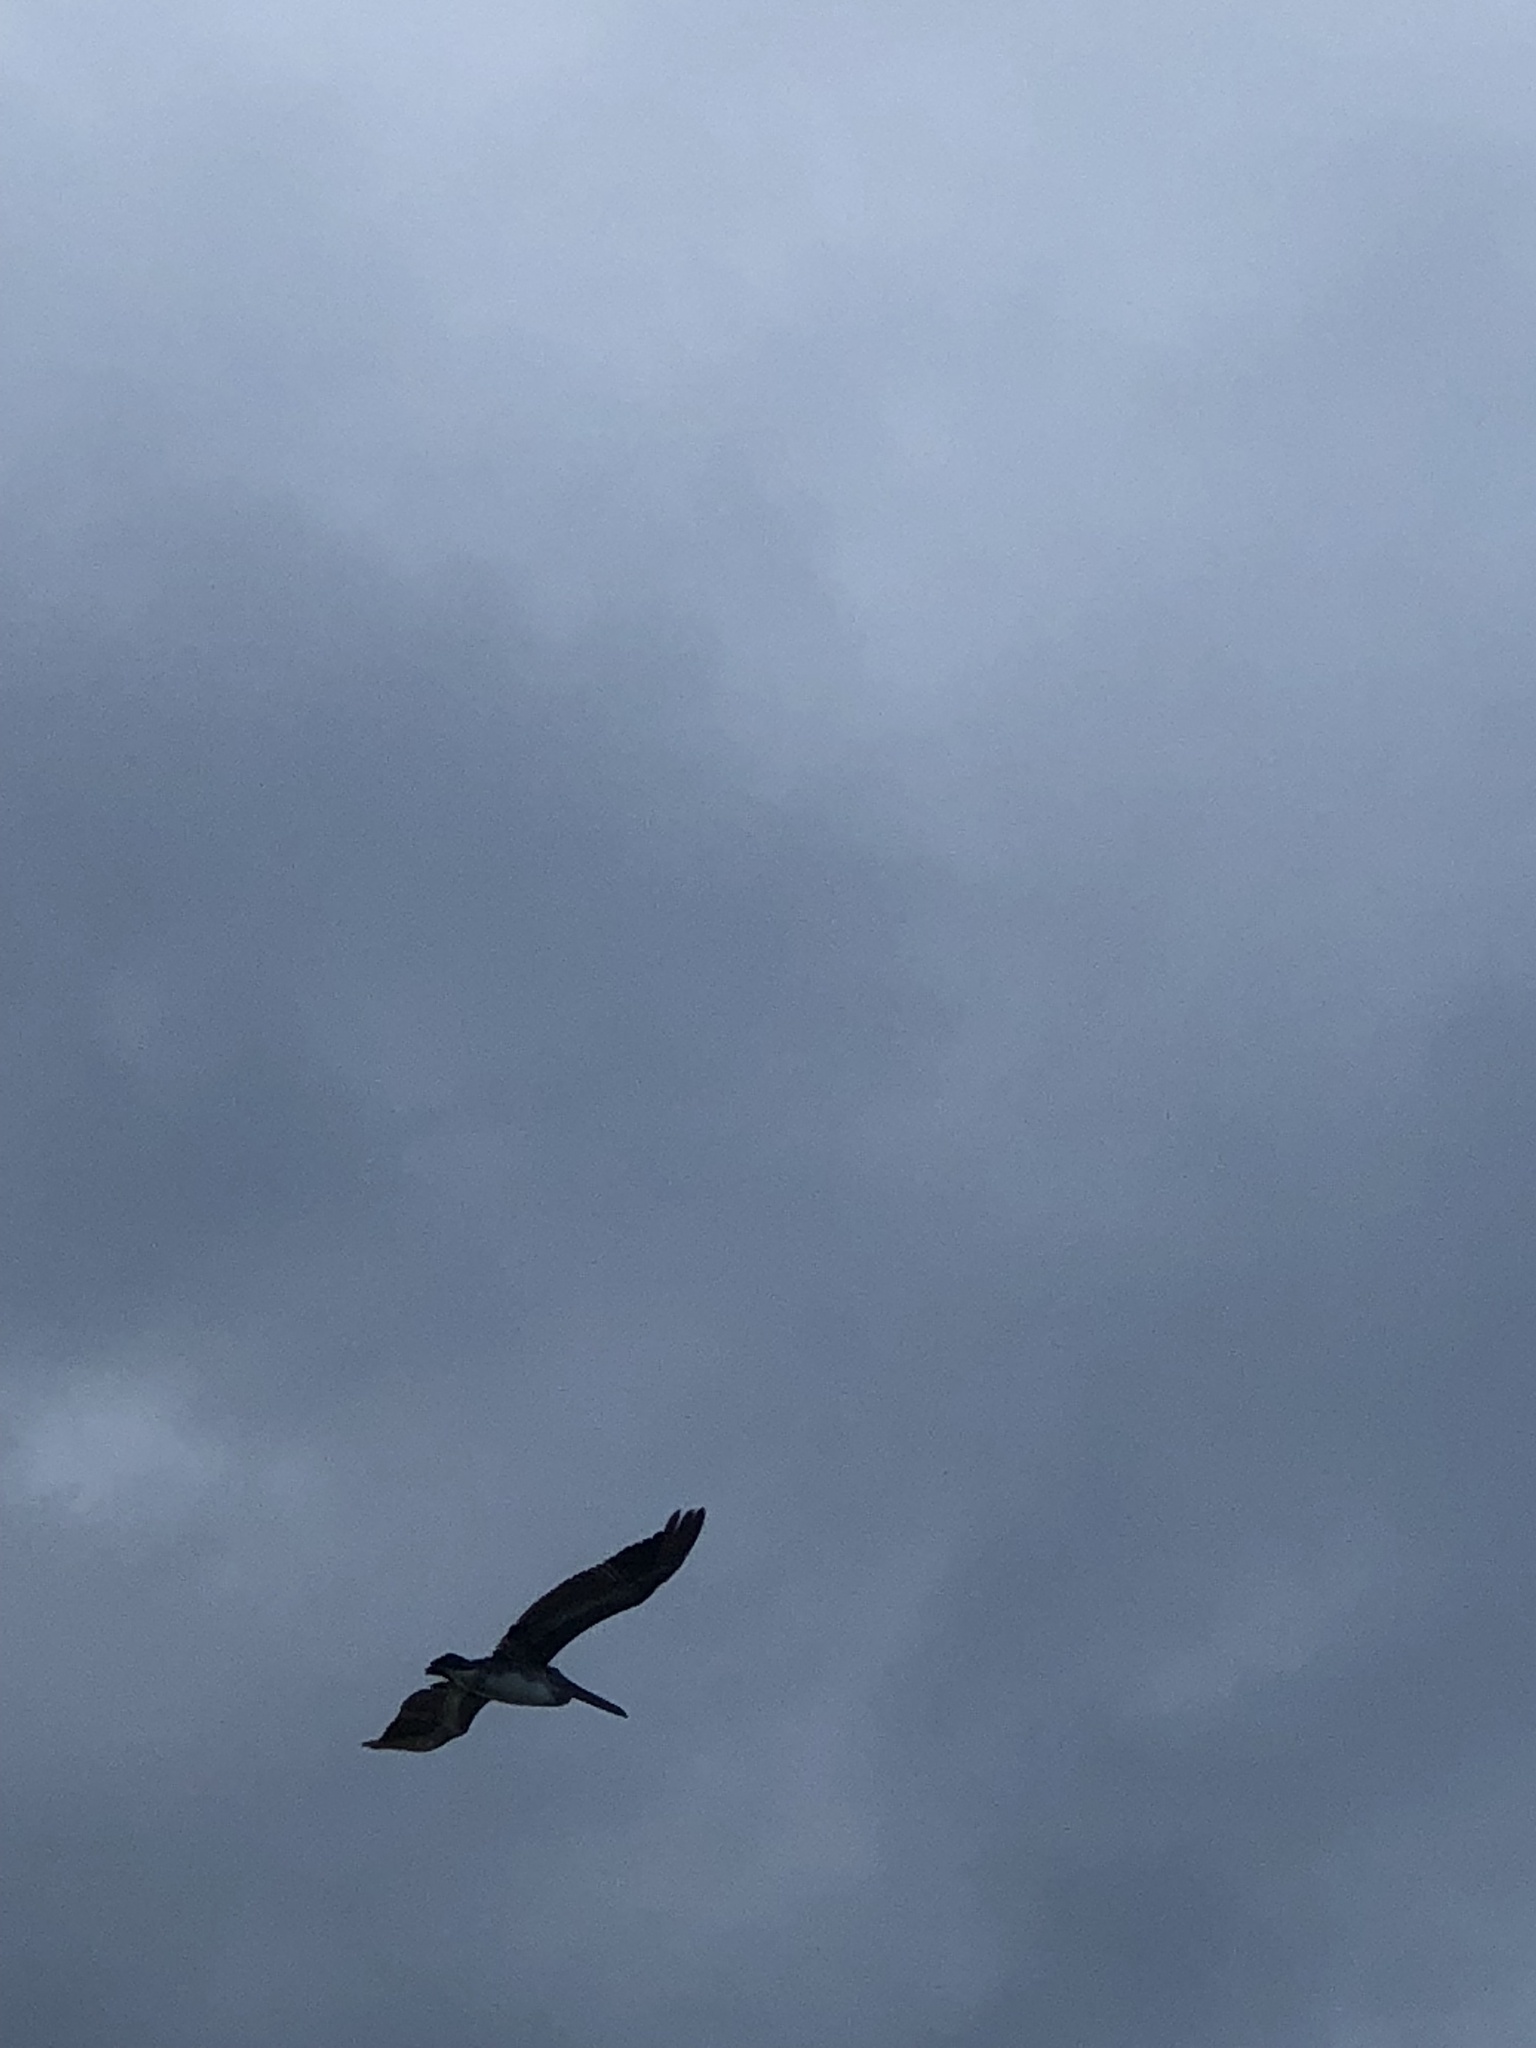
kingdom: Animalia
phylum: Chordata
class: Aves
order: Pelecaniformes
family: Pelecanidae
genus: Pelecanus
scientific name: Pelecanus occidentalis
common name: Brown pelican
